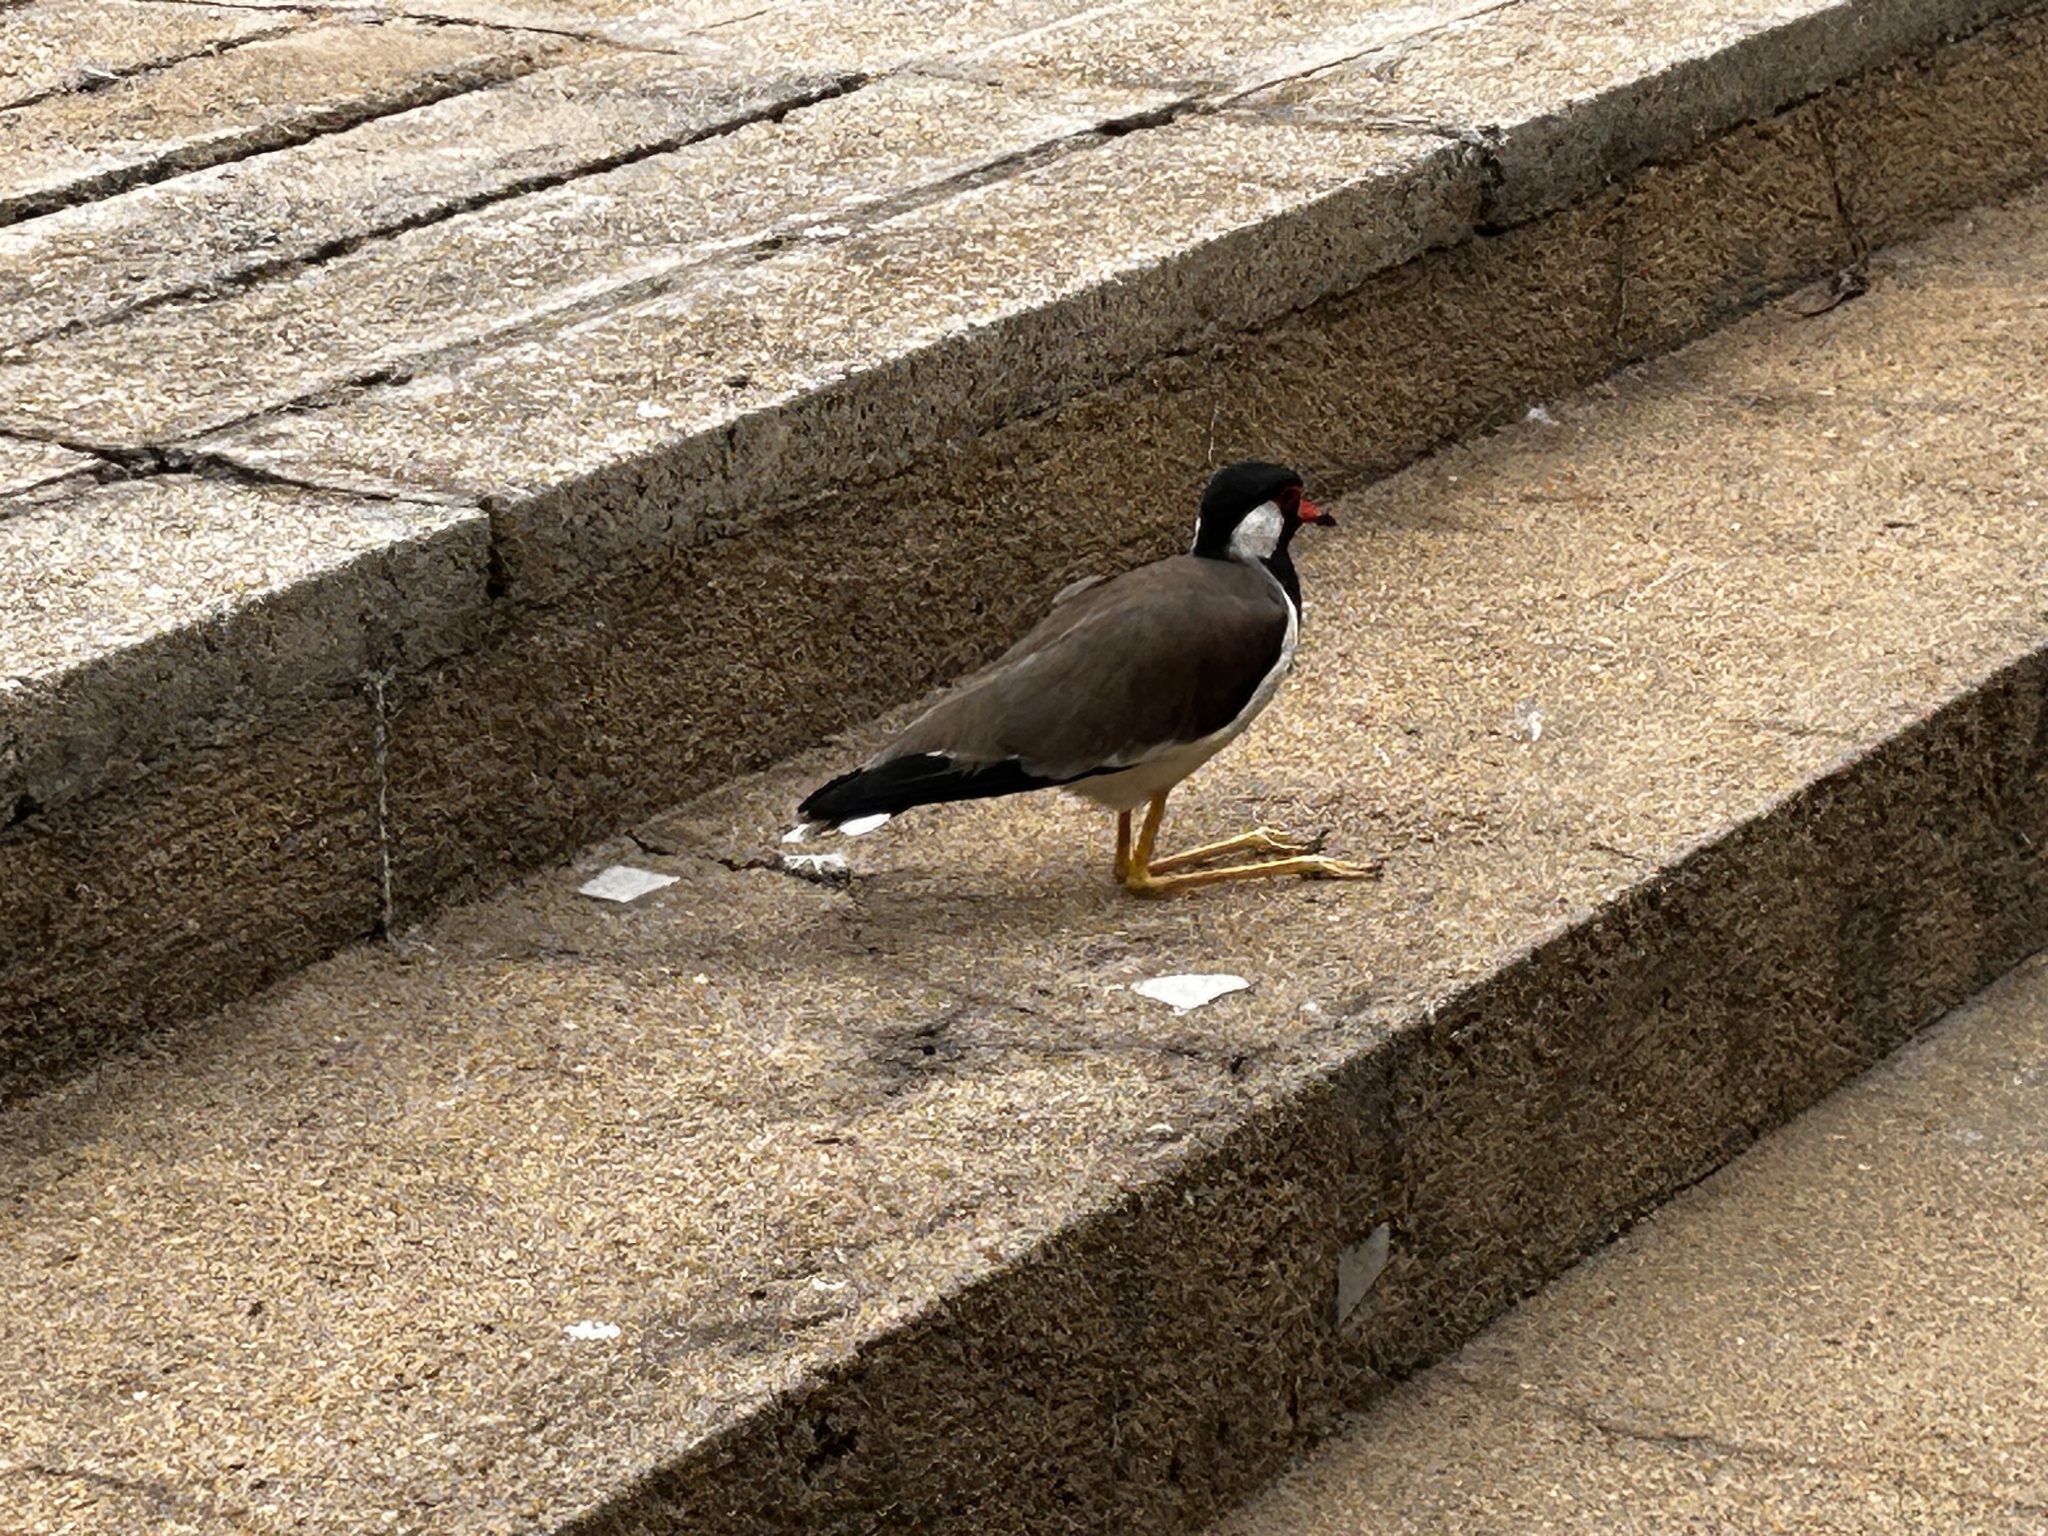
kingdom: Animalia
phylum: Chordata
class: Aves
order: Charadriiformes
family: Charadriidae
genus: Vanellus
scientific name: Vanellus indicus
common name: Red-wattled lapwing
